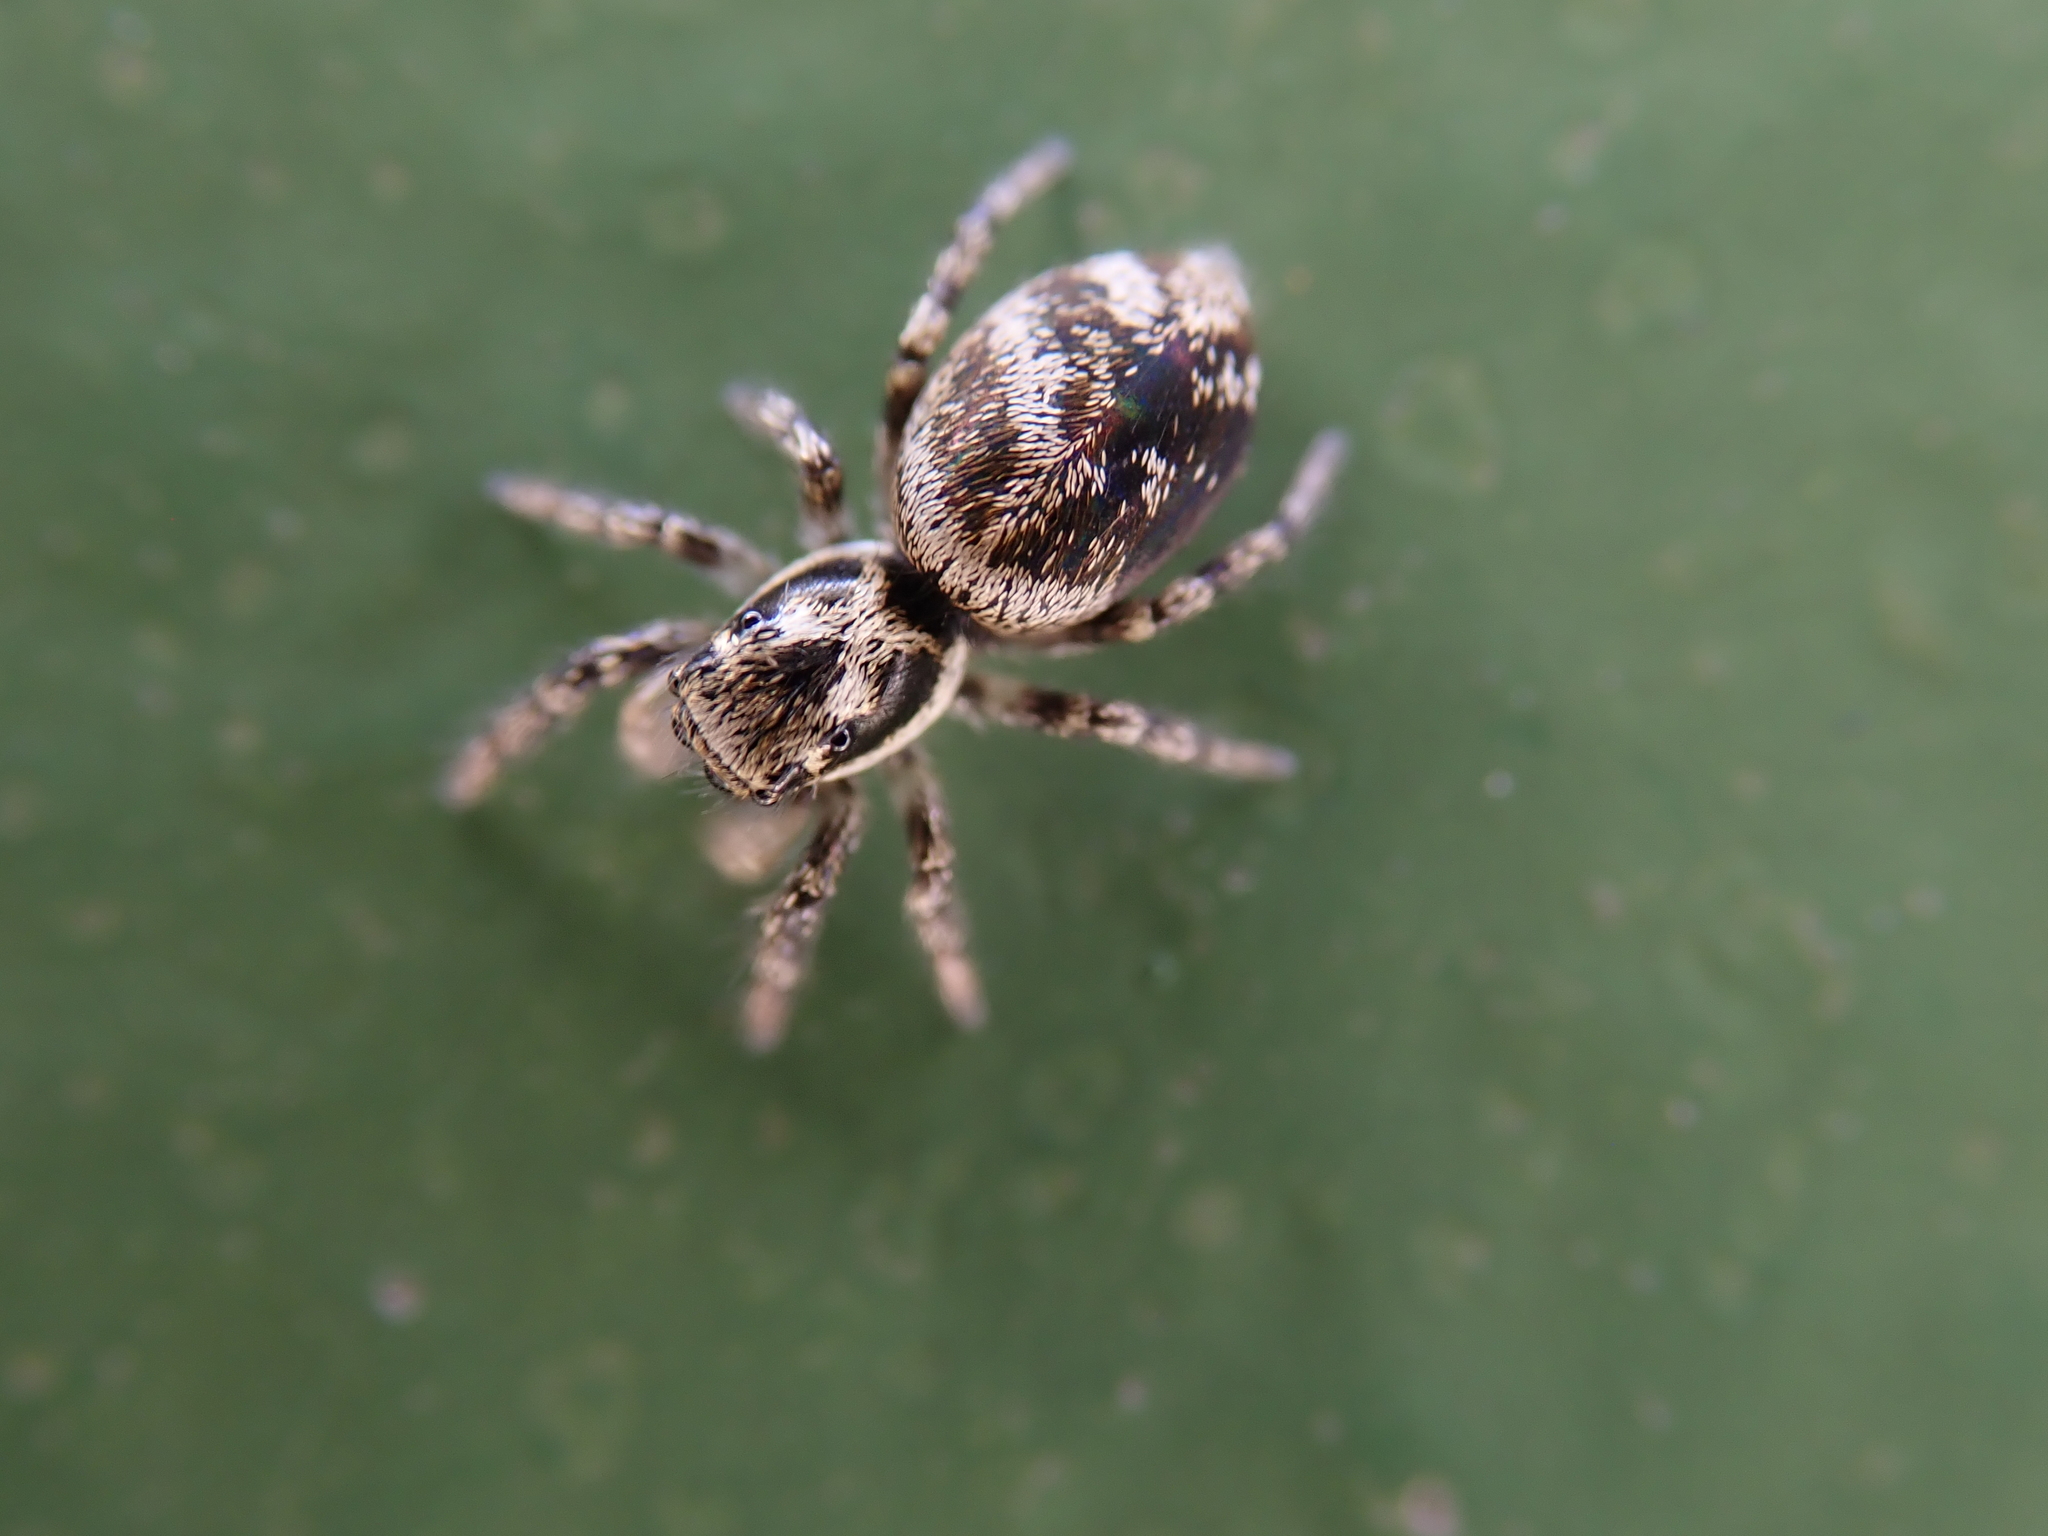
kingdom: Animalia
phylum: Arthropoda
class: Arachnida
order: Araneae
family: Salticidae
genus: Salticus
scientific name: Salticus scenicus
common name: Zebra jumper
